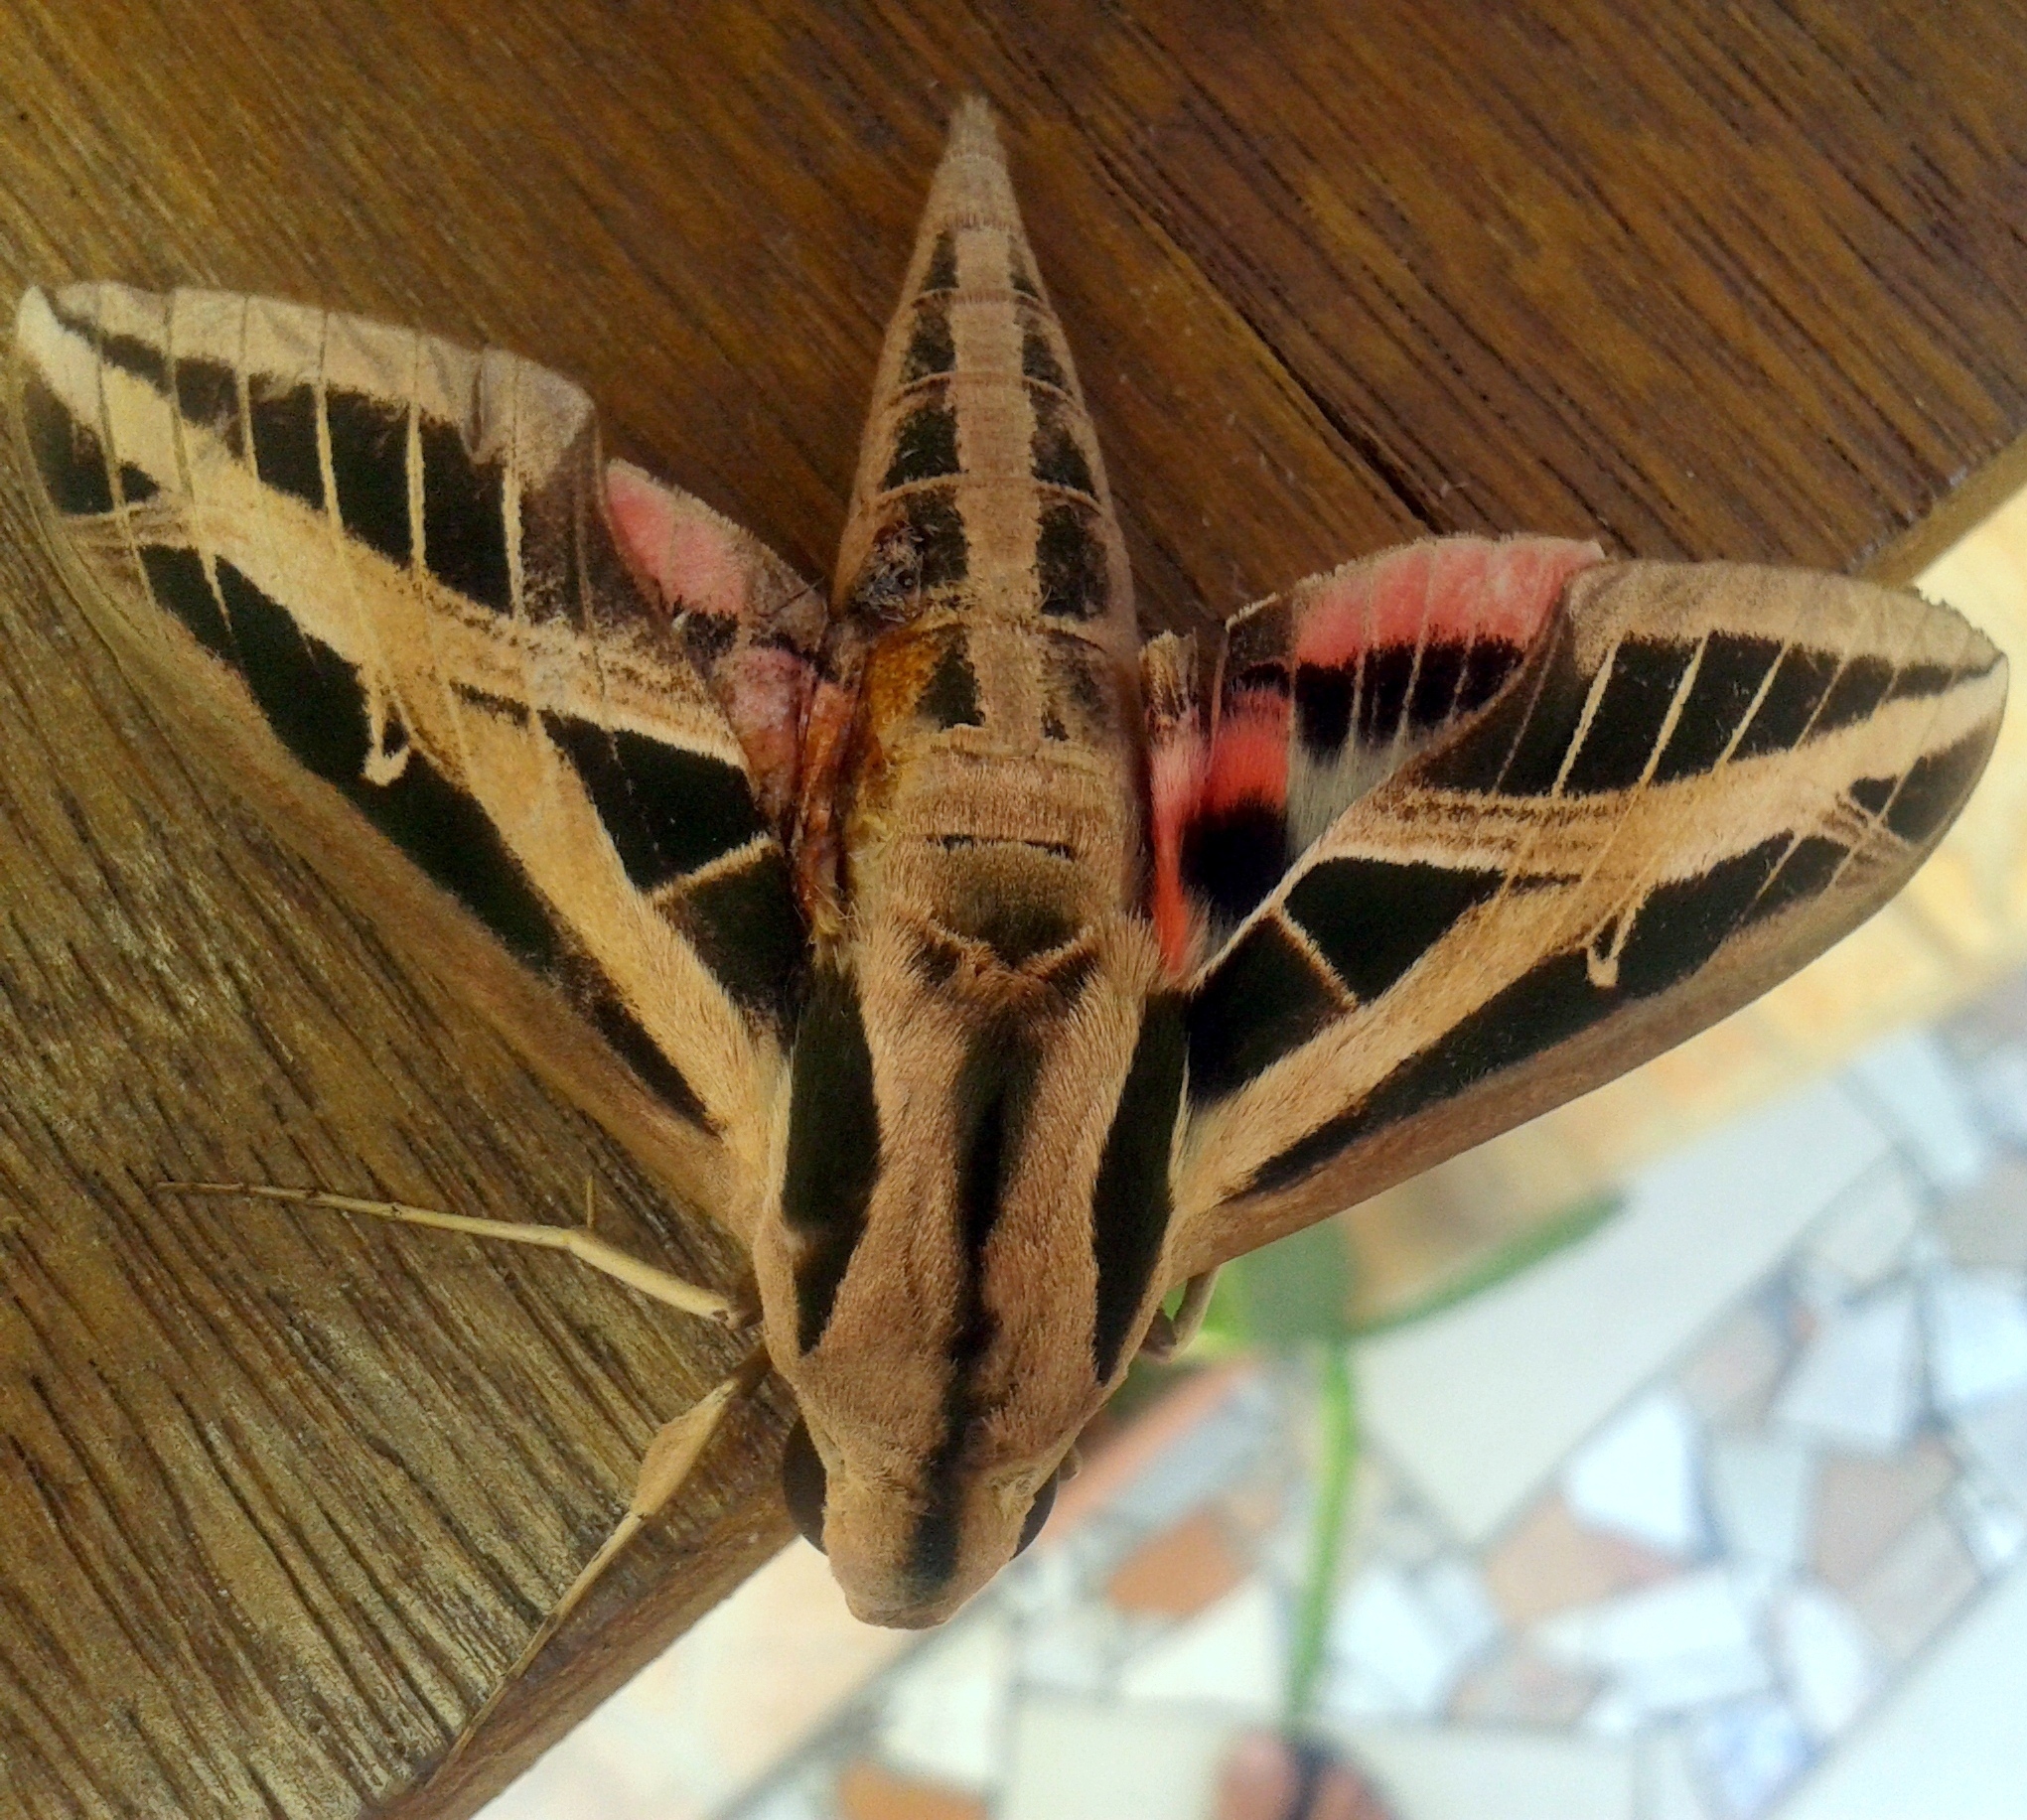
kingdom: Animalia
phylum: Arthropoda
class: Insecta
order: Lepidoptera
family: Sphingidae
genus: Eumorpha
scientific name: Eumorpha fasciatus
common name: Banded sphinx
